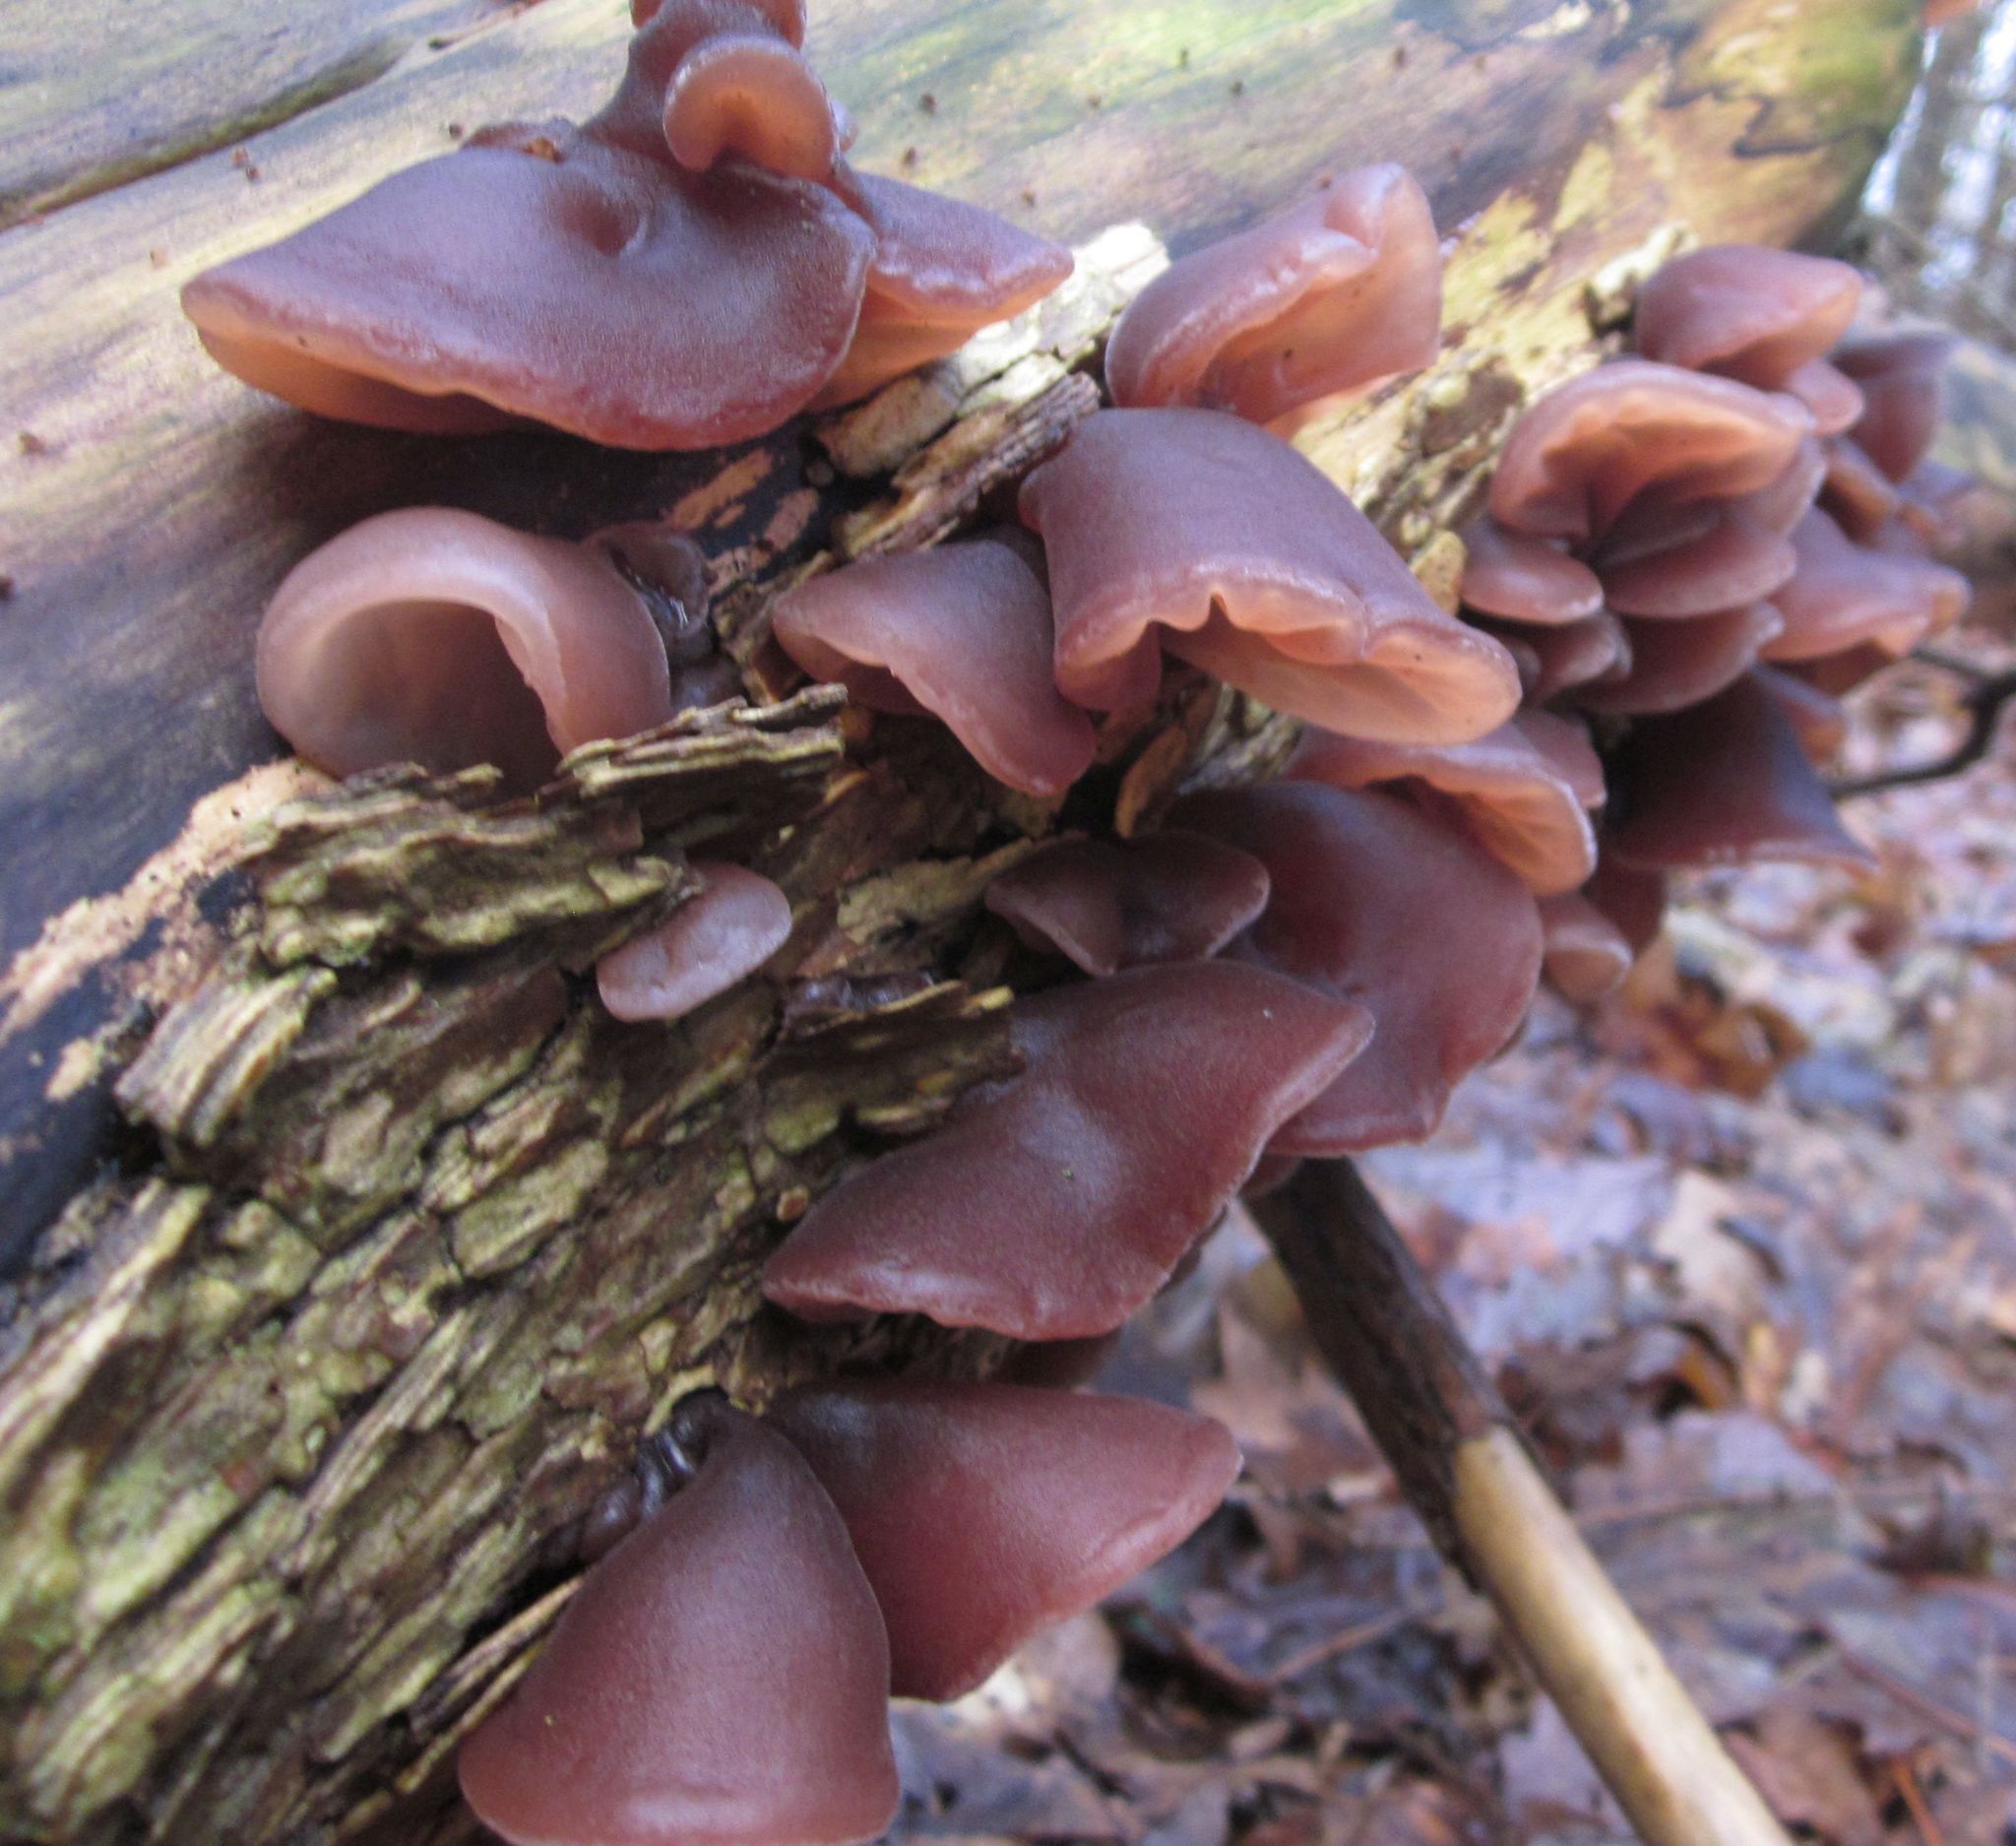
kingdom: Fungi
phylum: Basidiomycota
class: Agaricomycetes
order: Auriculariales
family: Auriculariaceae
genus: Auricularia
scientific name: Auricularia auricula-judae
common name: Jelly ear
